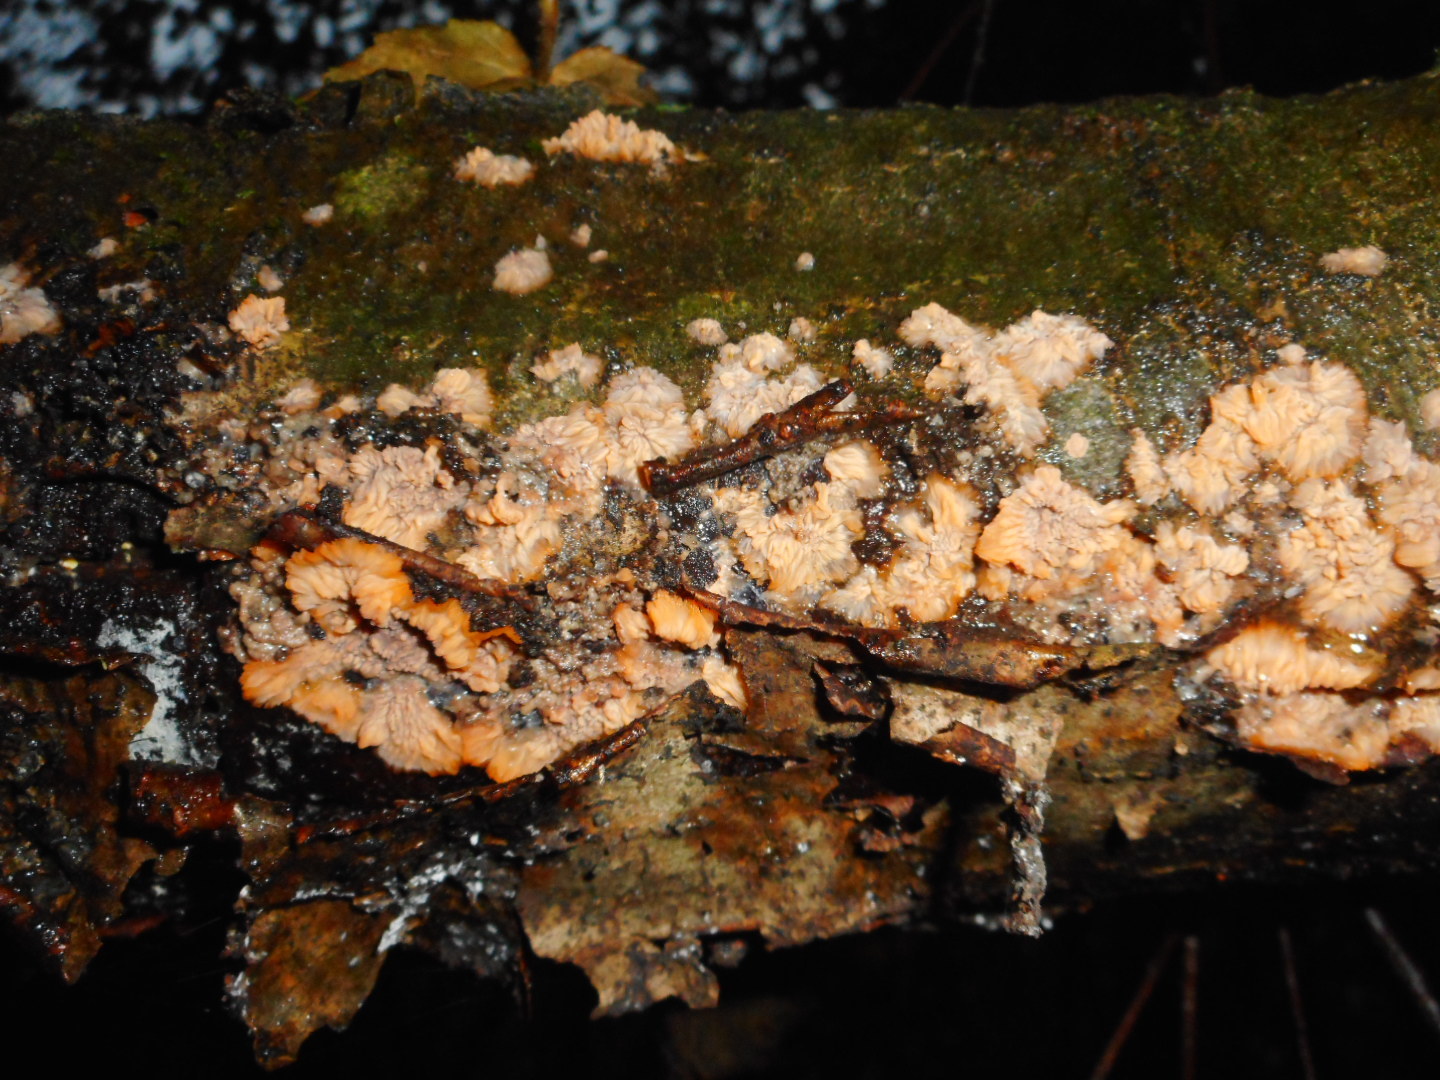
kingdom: Fungi
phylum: Basidiomycota
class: Agaricomycetes
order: Polyporales
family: Meruliaceae
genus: Phlebia
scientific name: Phlebia radiata
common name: Wrinkled crust
